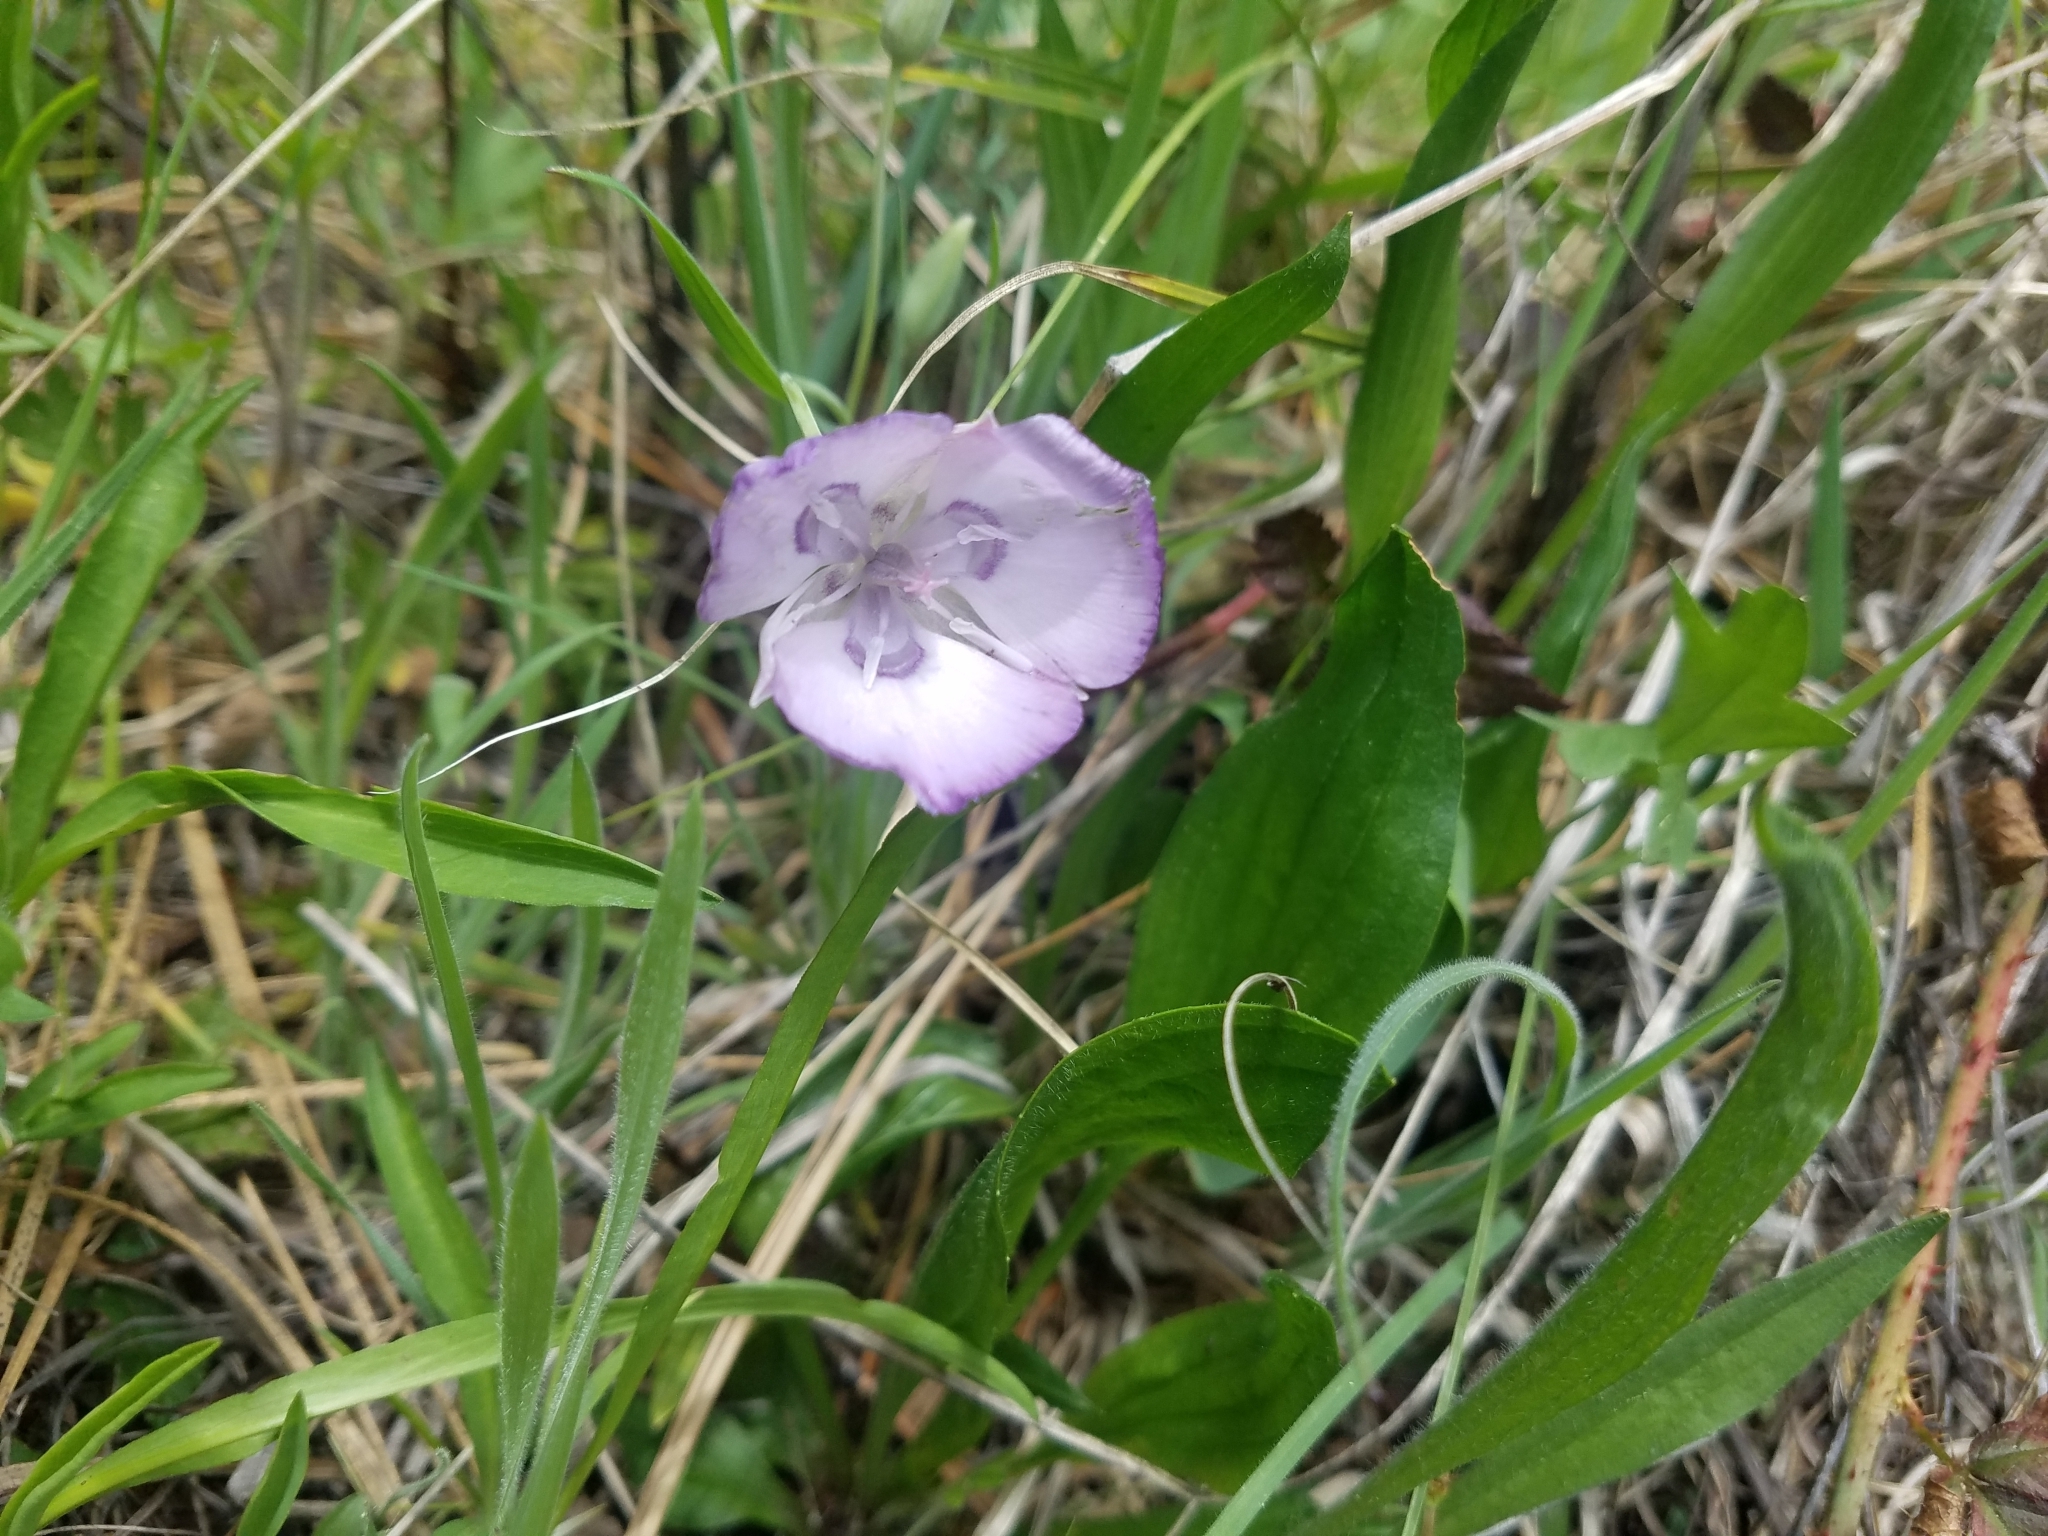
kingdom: Plantae
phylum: Tracheophyta
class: Liliopsida
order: Liliales
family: Liliaceae
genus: Calochortus
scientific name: Calochortus nudus
